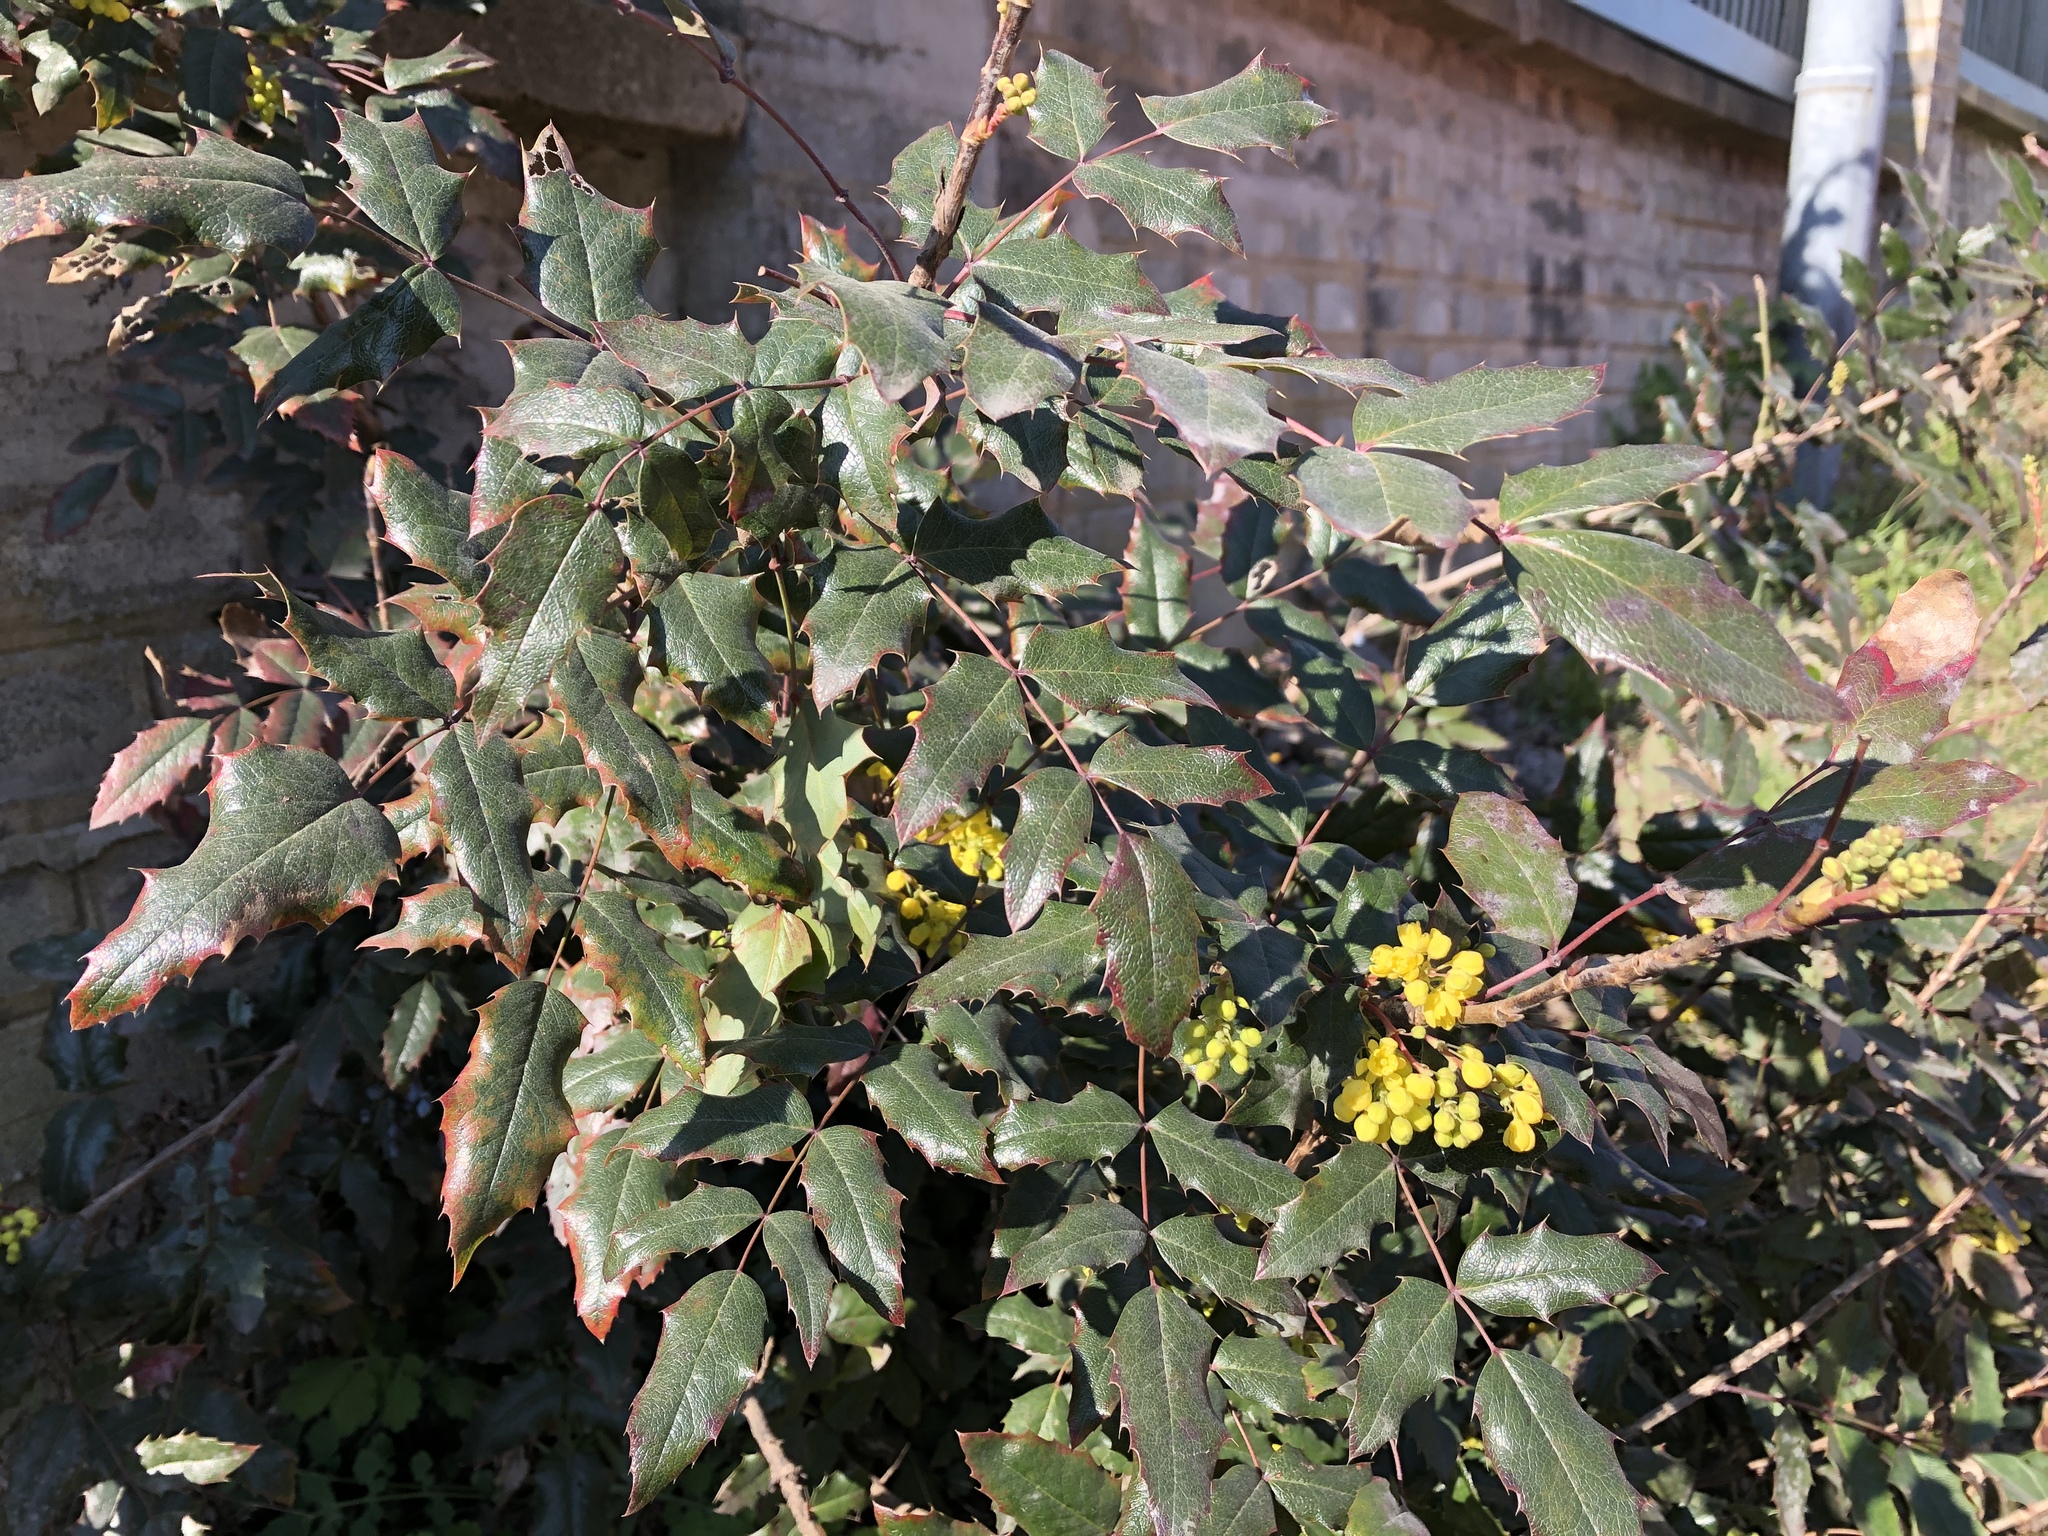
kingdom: Plantae
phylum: Tracheophyta
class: Magnoliopsida
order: Ranunculales
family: Berberidaceae
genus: Mahonia
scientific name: Mahonia aquifolium
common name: Oregon-grape
